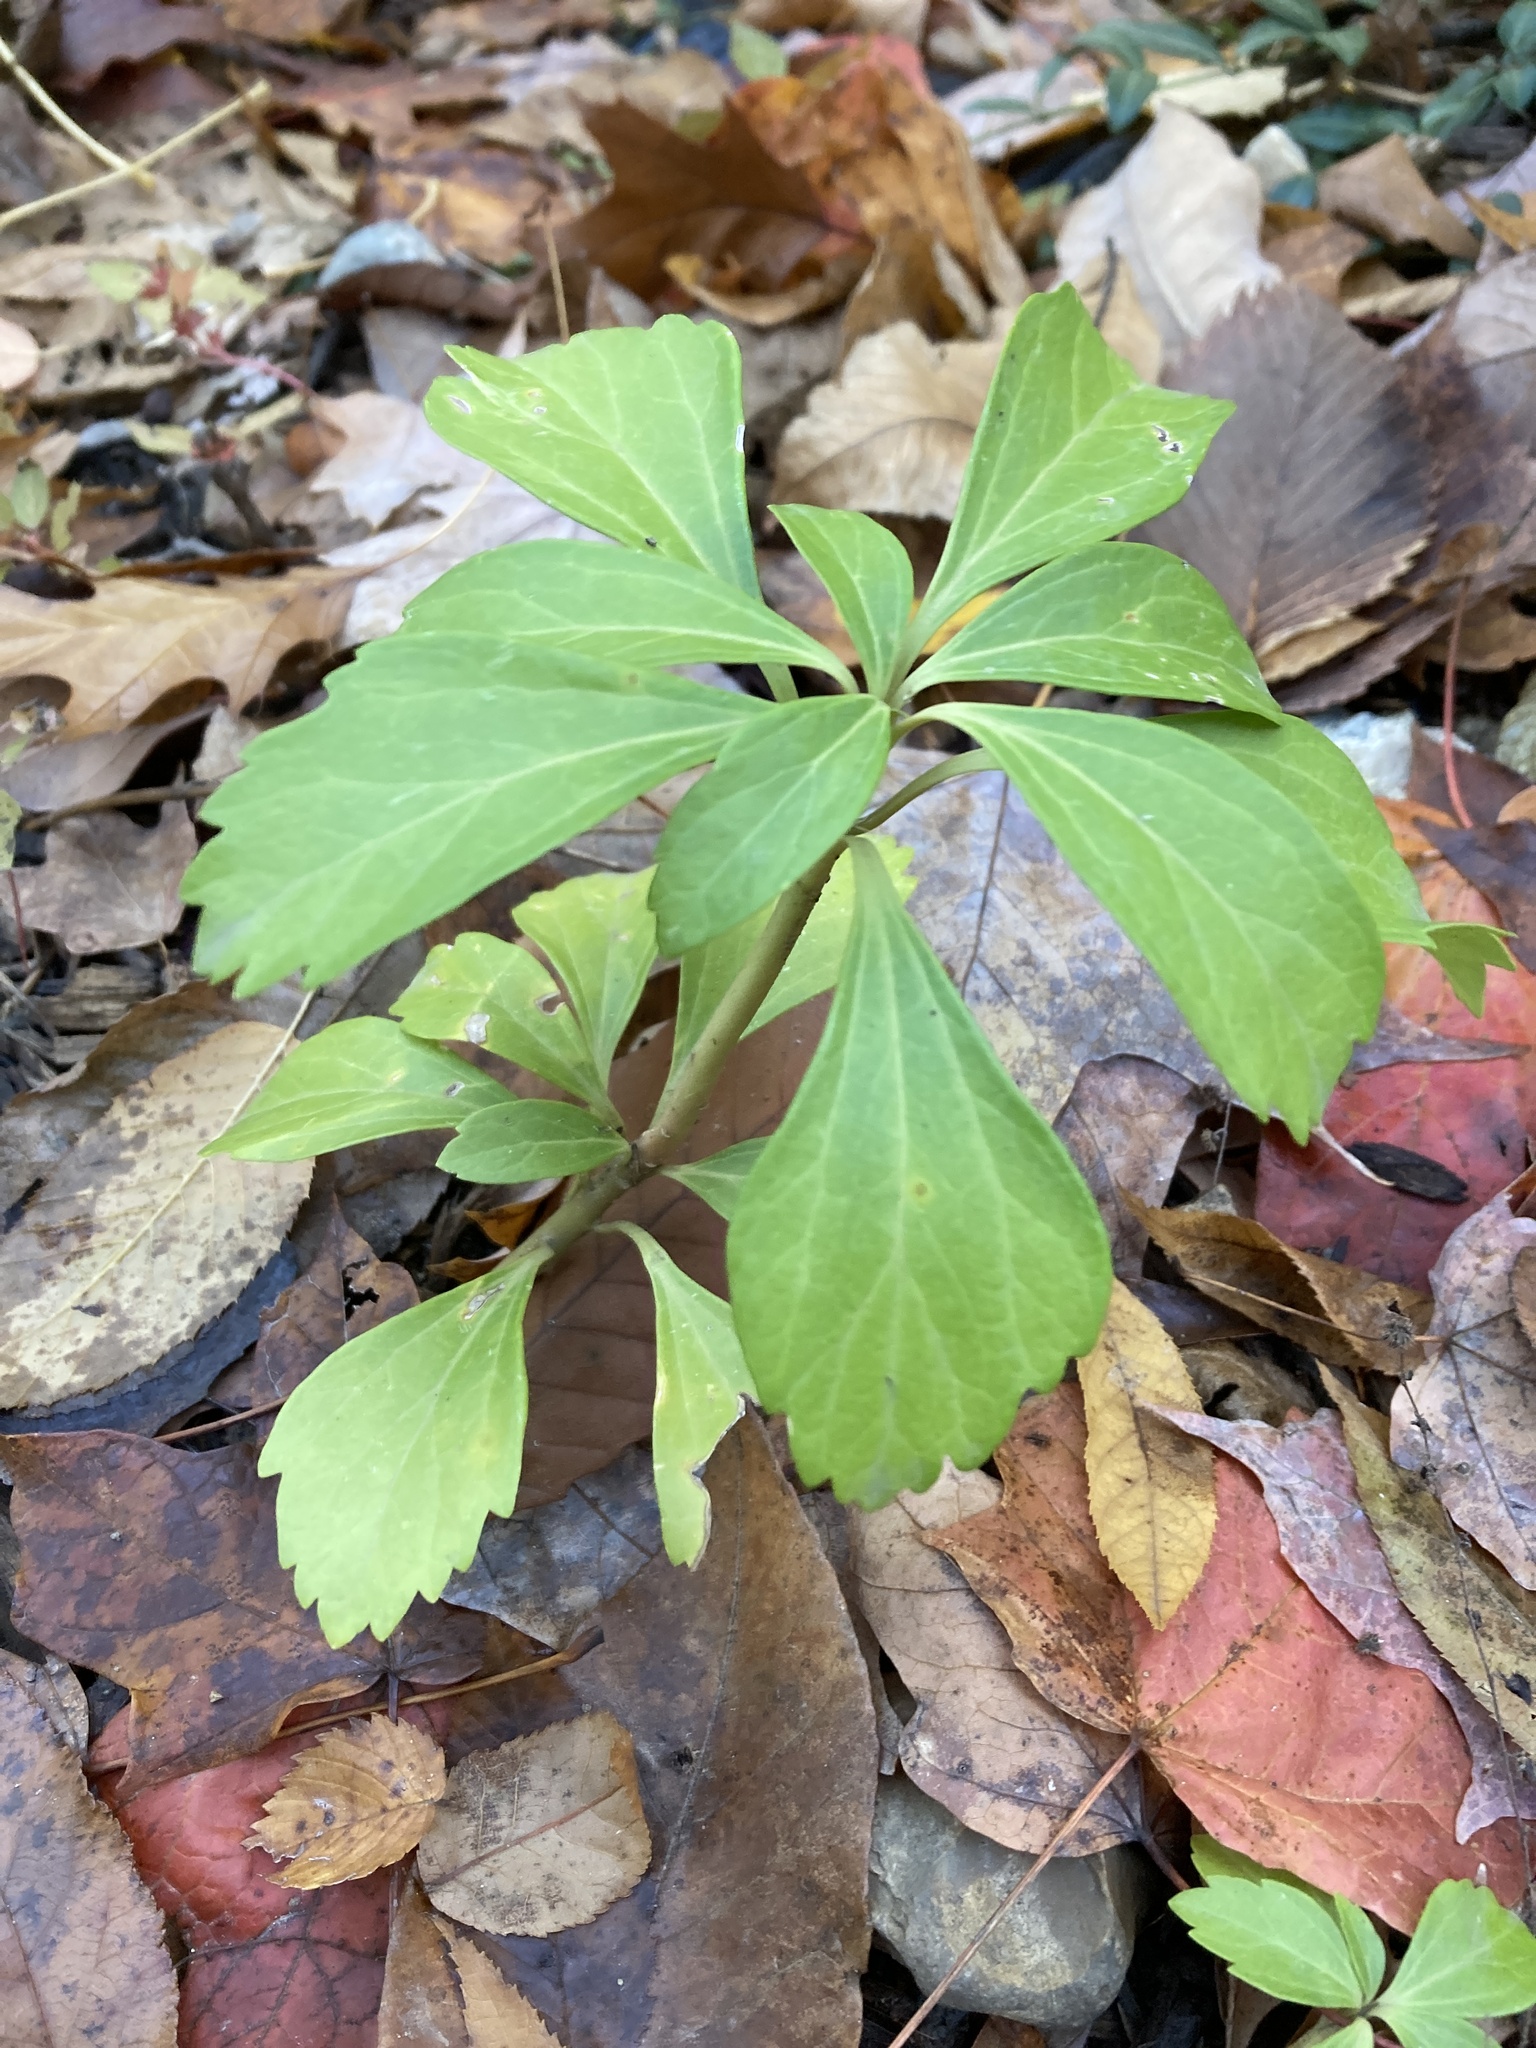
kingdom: Plantae
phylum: Tracheophyta
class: Magnoliopsida
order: Buxales
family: Buxaceae
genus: Pachysandra
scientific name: Pachysandra terminalis
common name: Japanese pachysandra
